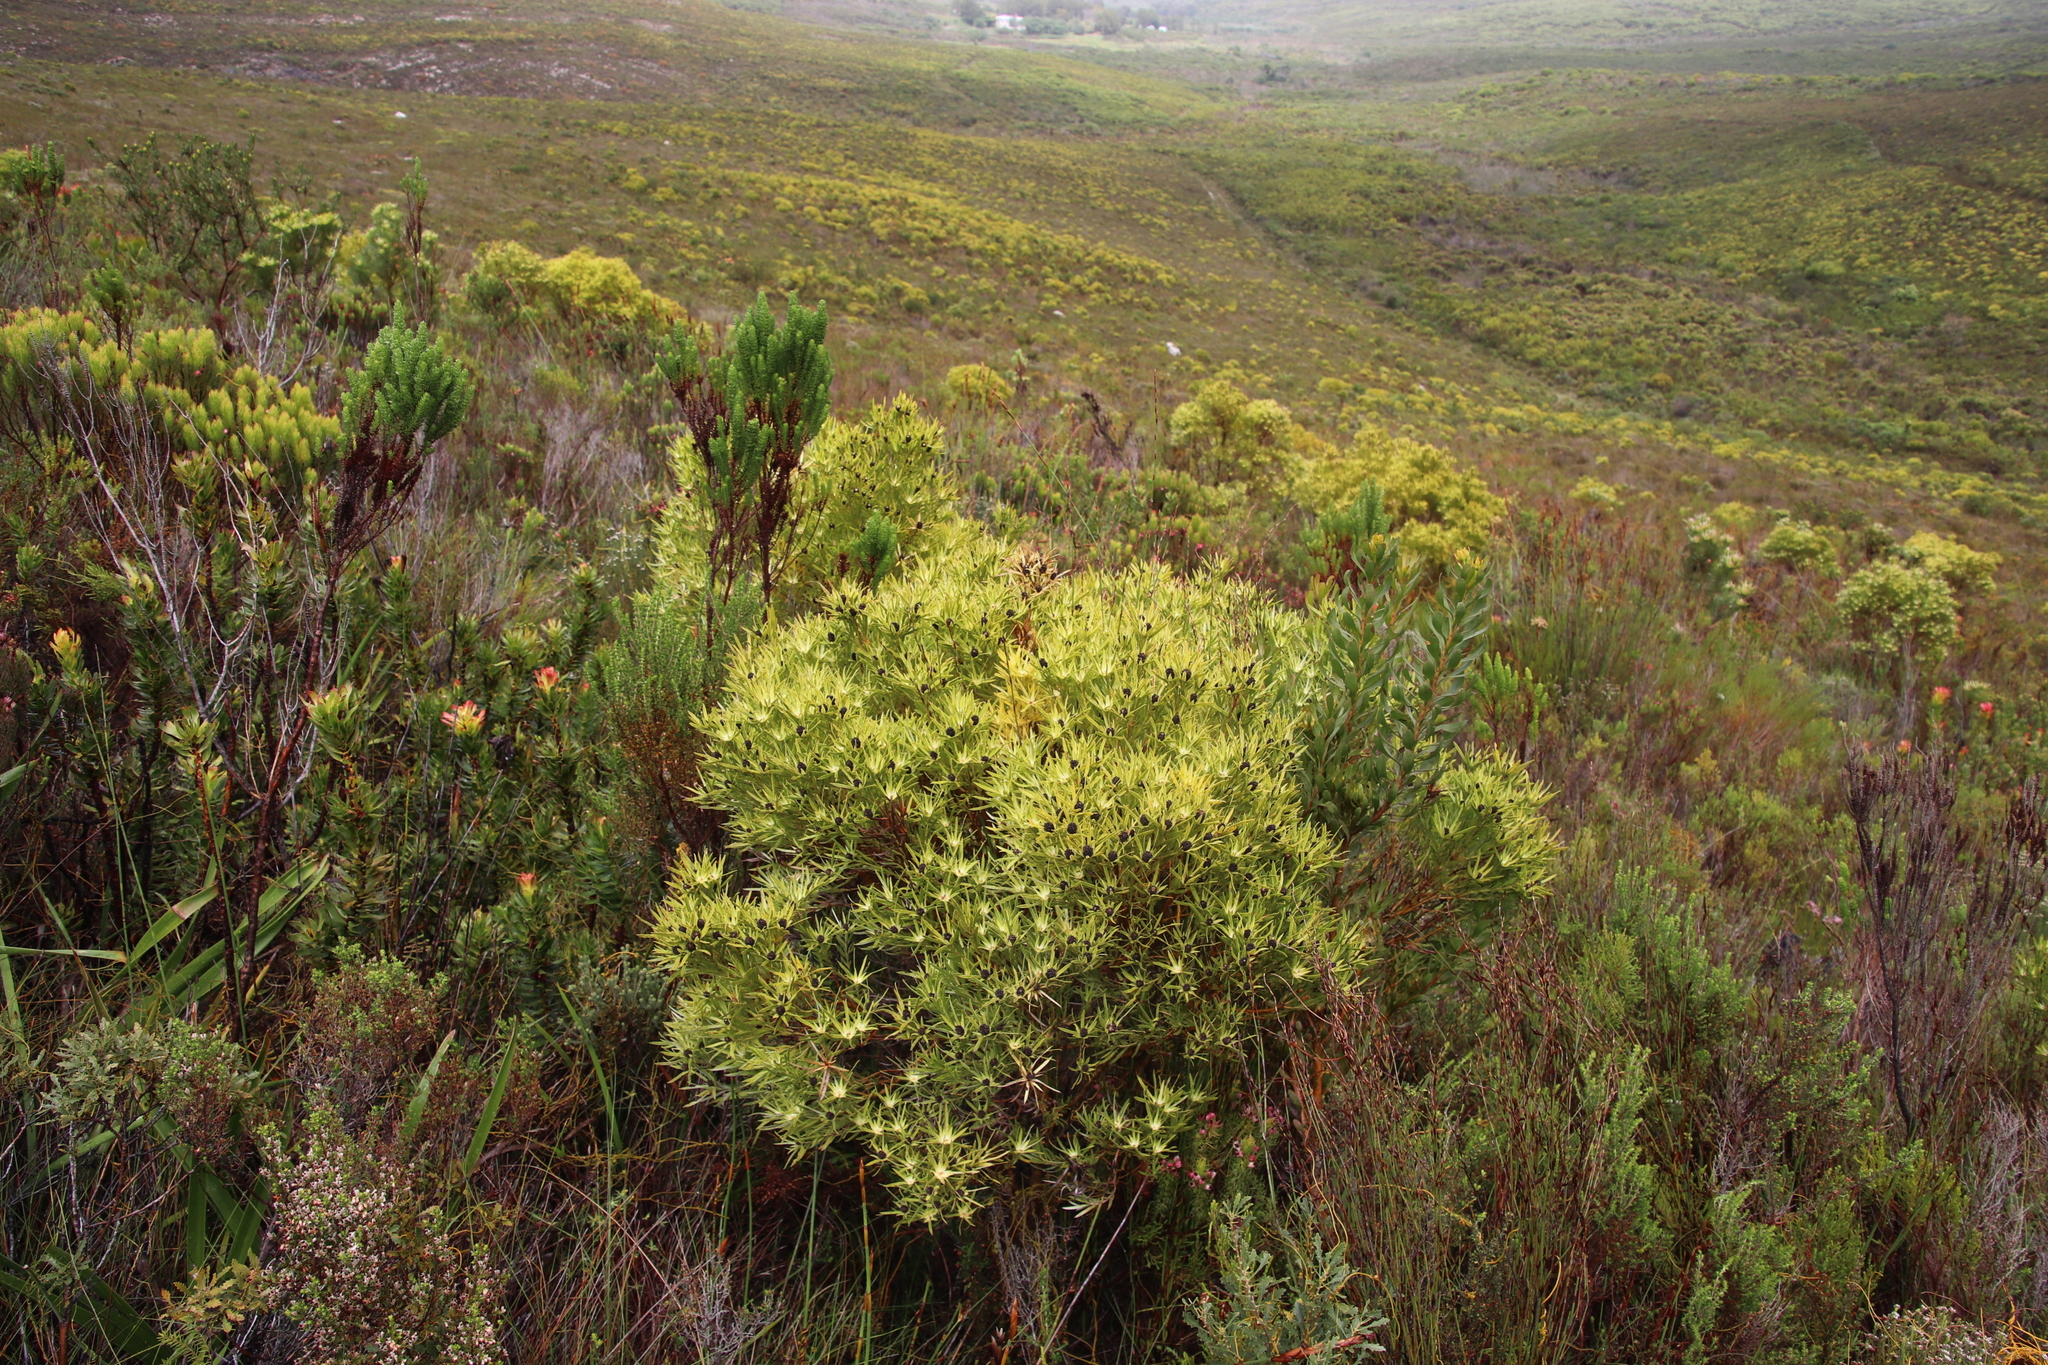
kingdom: Plantae
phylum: Tracheophyta
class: Magnoliopsida
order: Proteales
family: Proteaceae
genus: Leucadendron
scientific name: Leucadendron xanthoconus
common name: Sickle-leaf conebush
